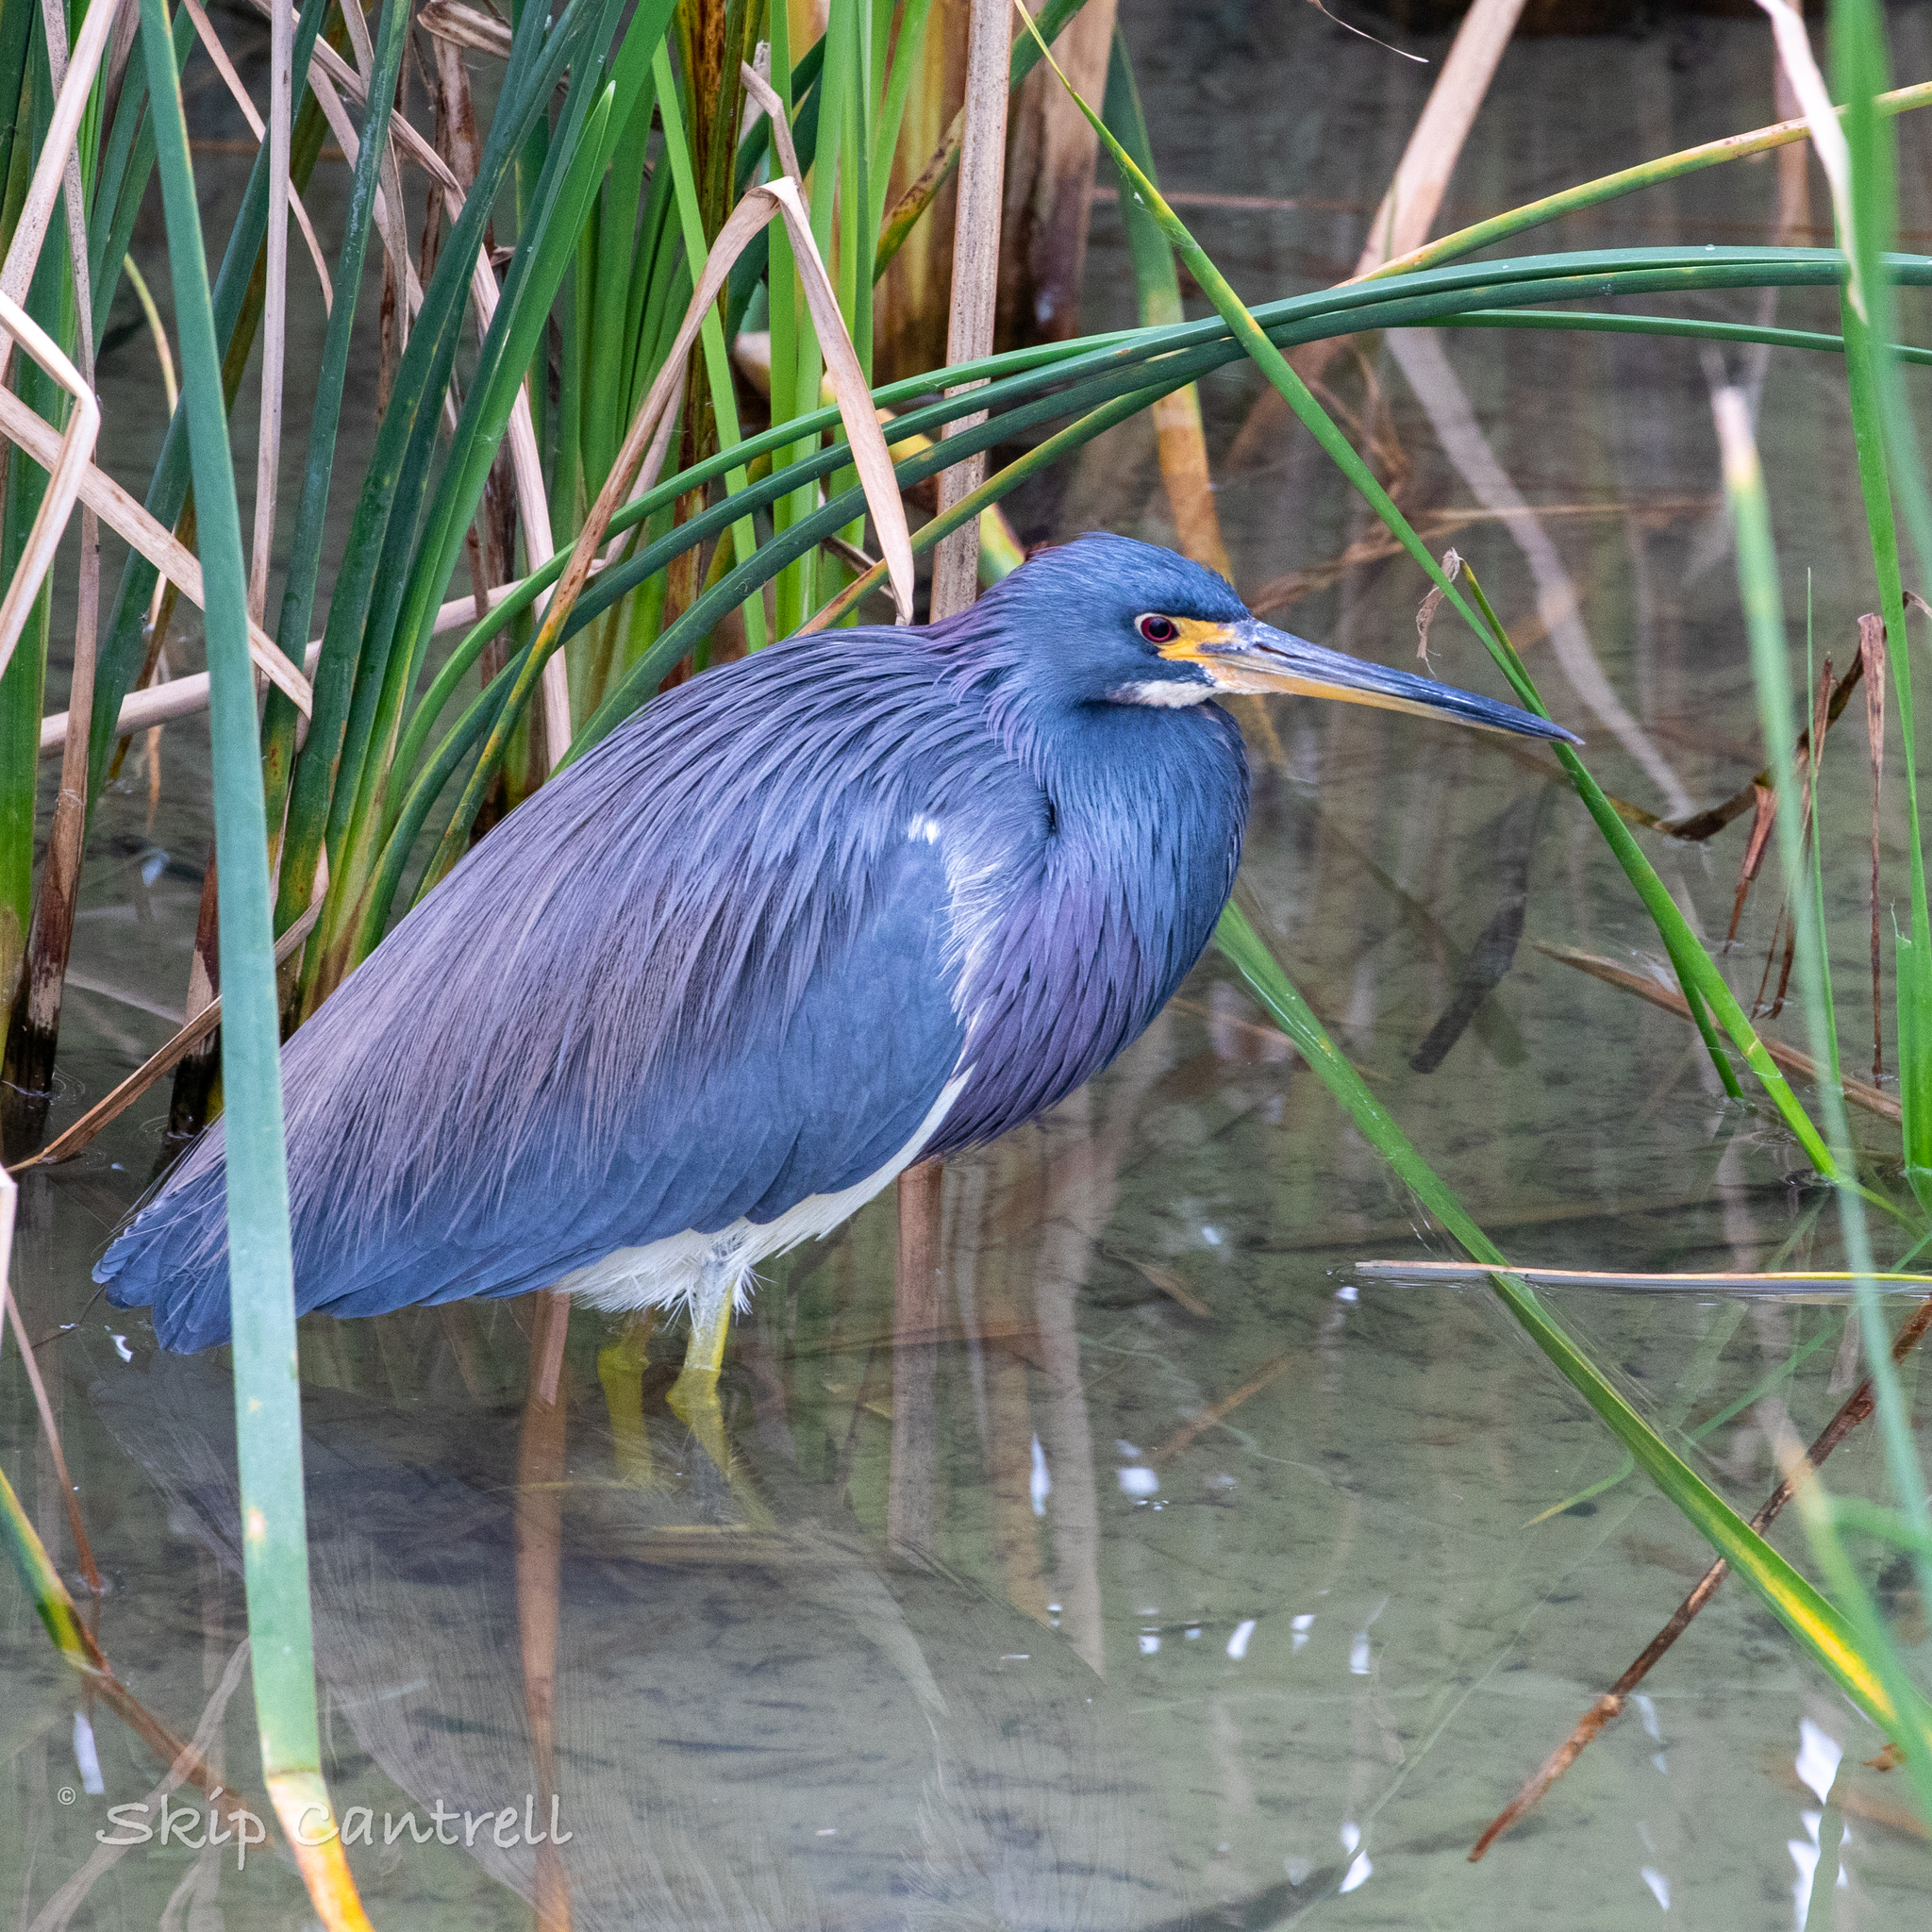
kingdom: Animalia
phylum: Chordata
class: Aves
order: Pelecaniformes
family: Ardeidae
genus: Egretta
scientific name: Egretta tricolor
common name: Tricolored heron
